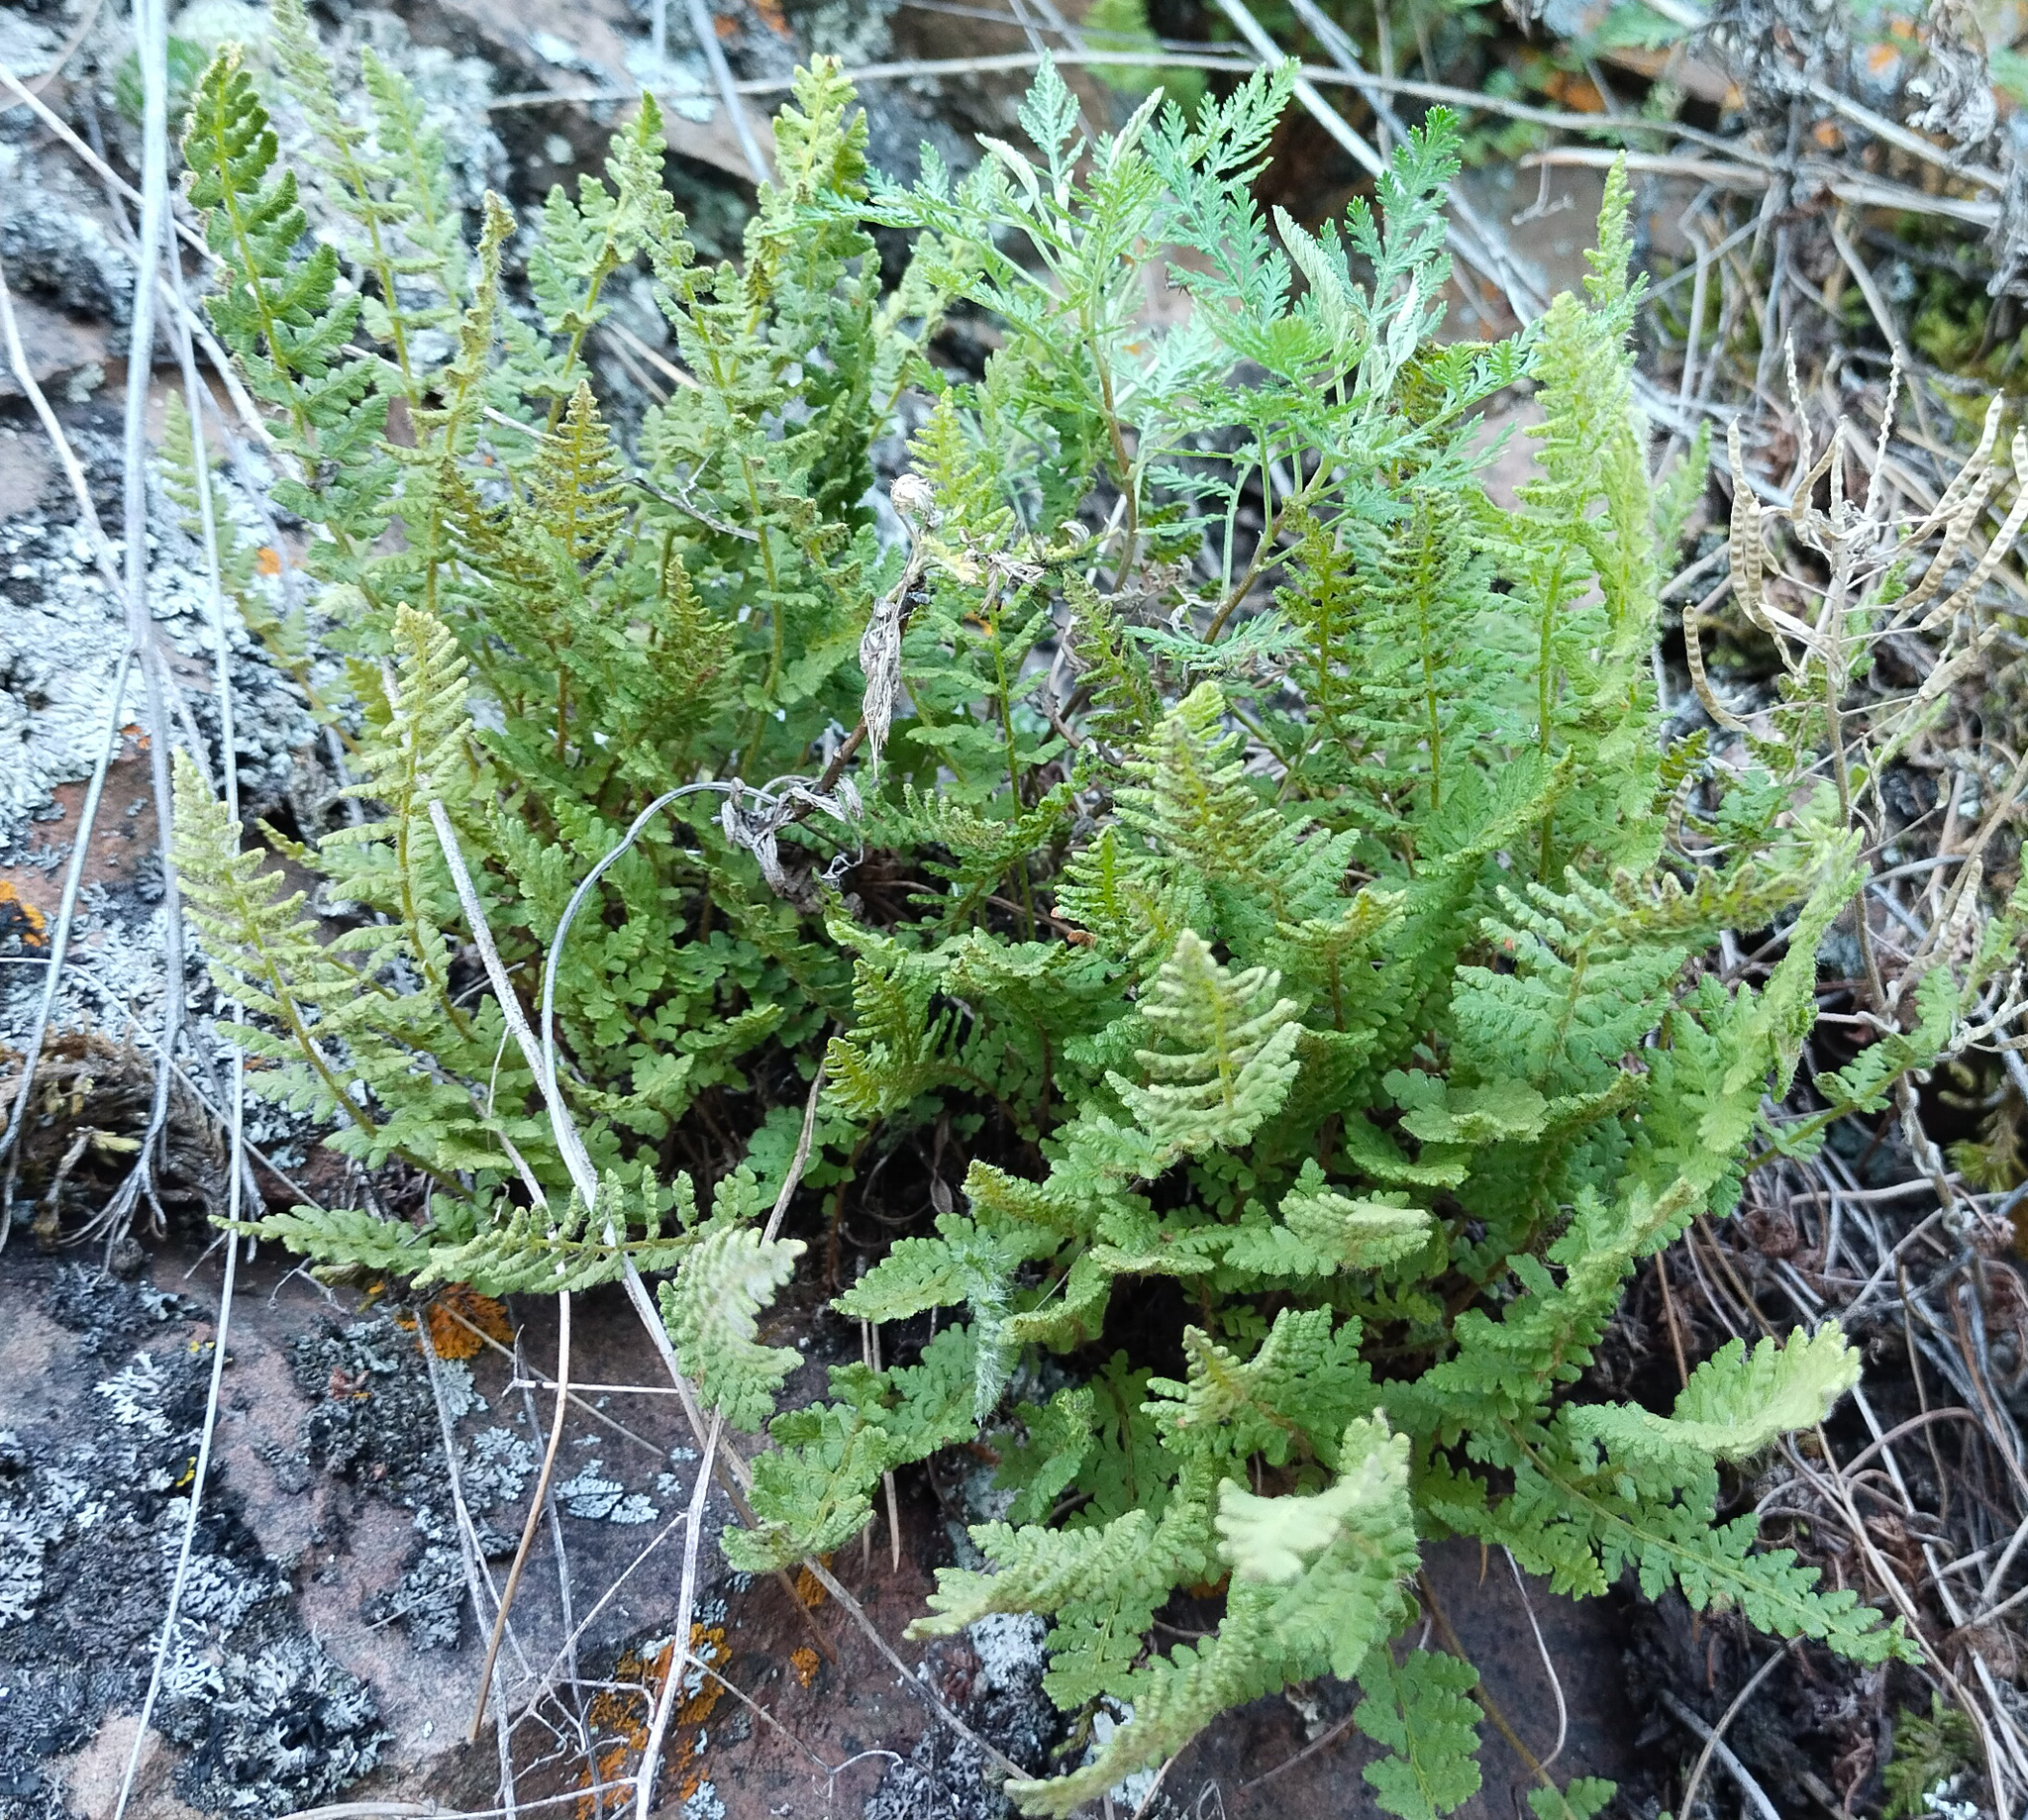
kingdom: Plantae
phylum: Tracheophyta
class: Polypodiopsida
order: Polypodiales
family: Woodsiaceae
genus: Woodsia
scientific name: Woodsia ilvensis
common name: Fragrant woodsia
